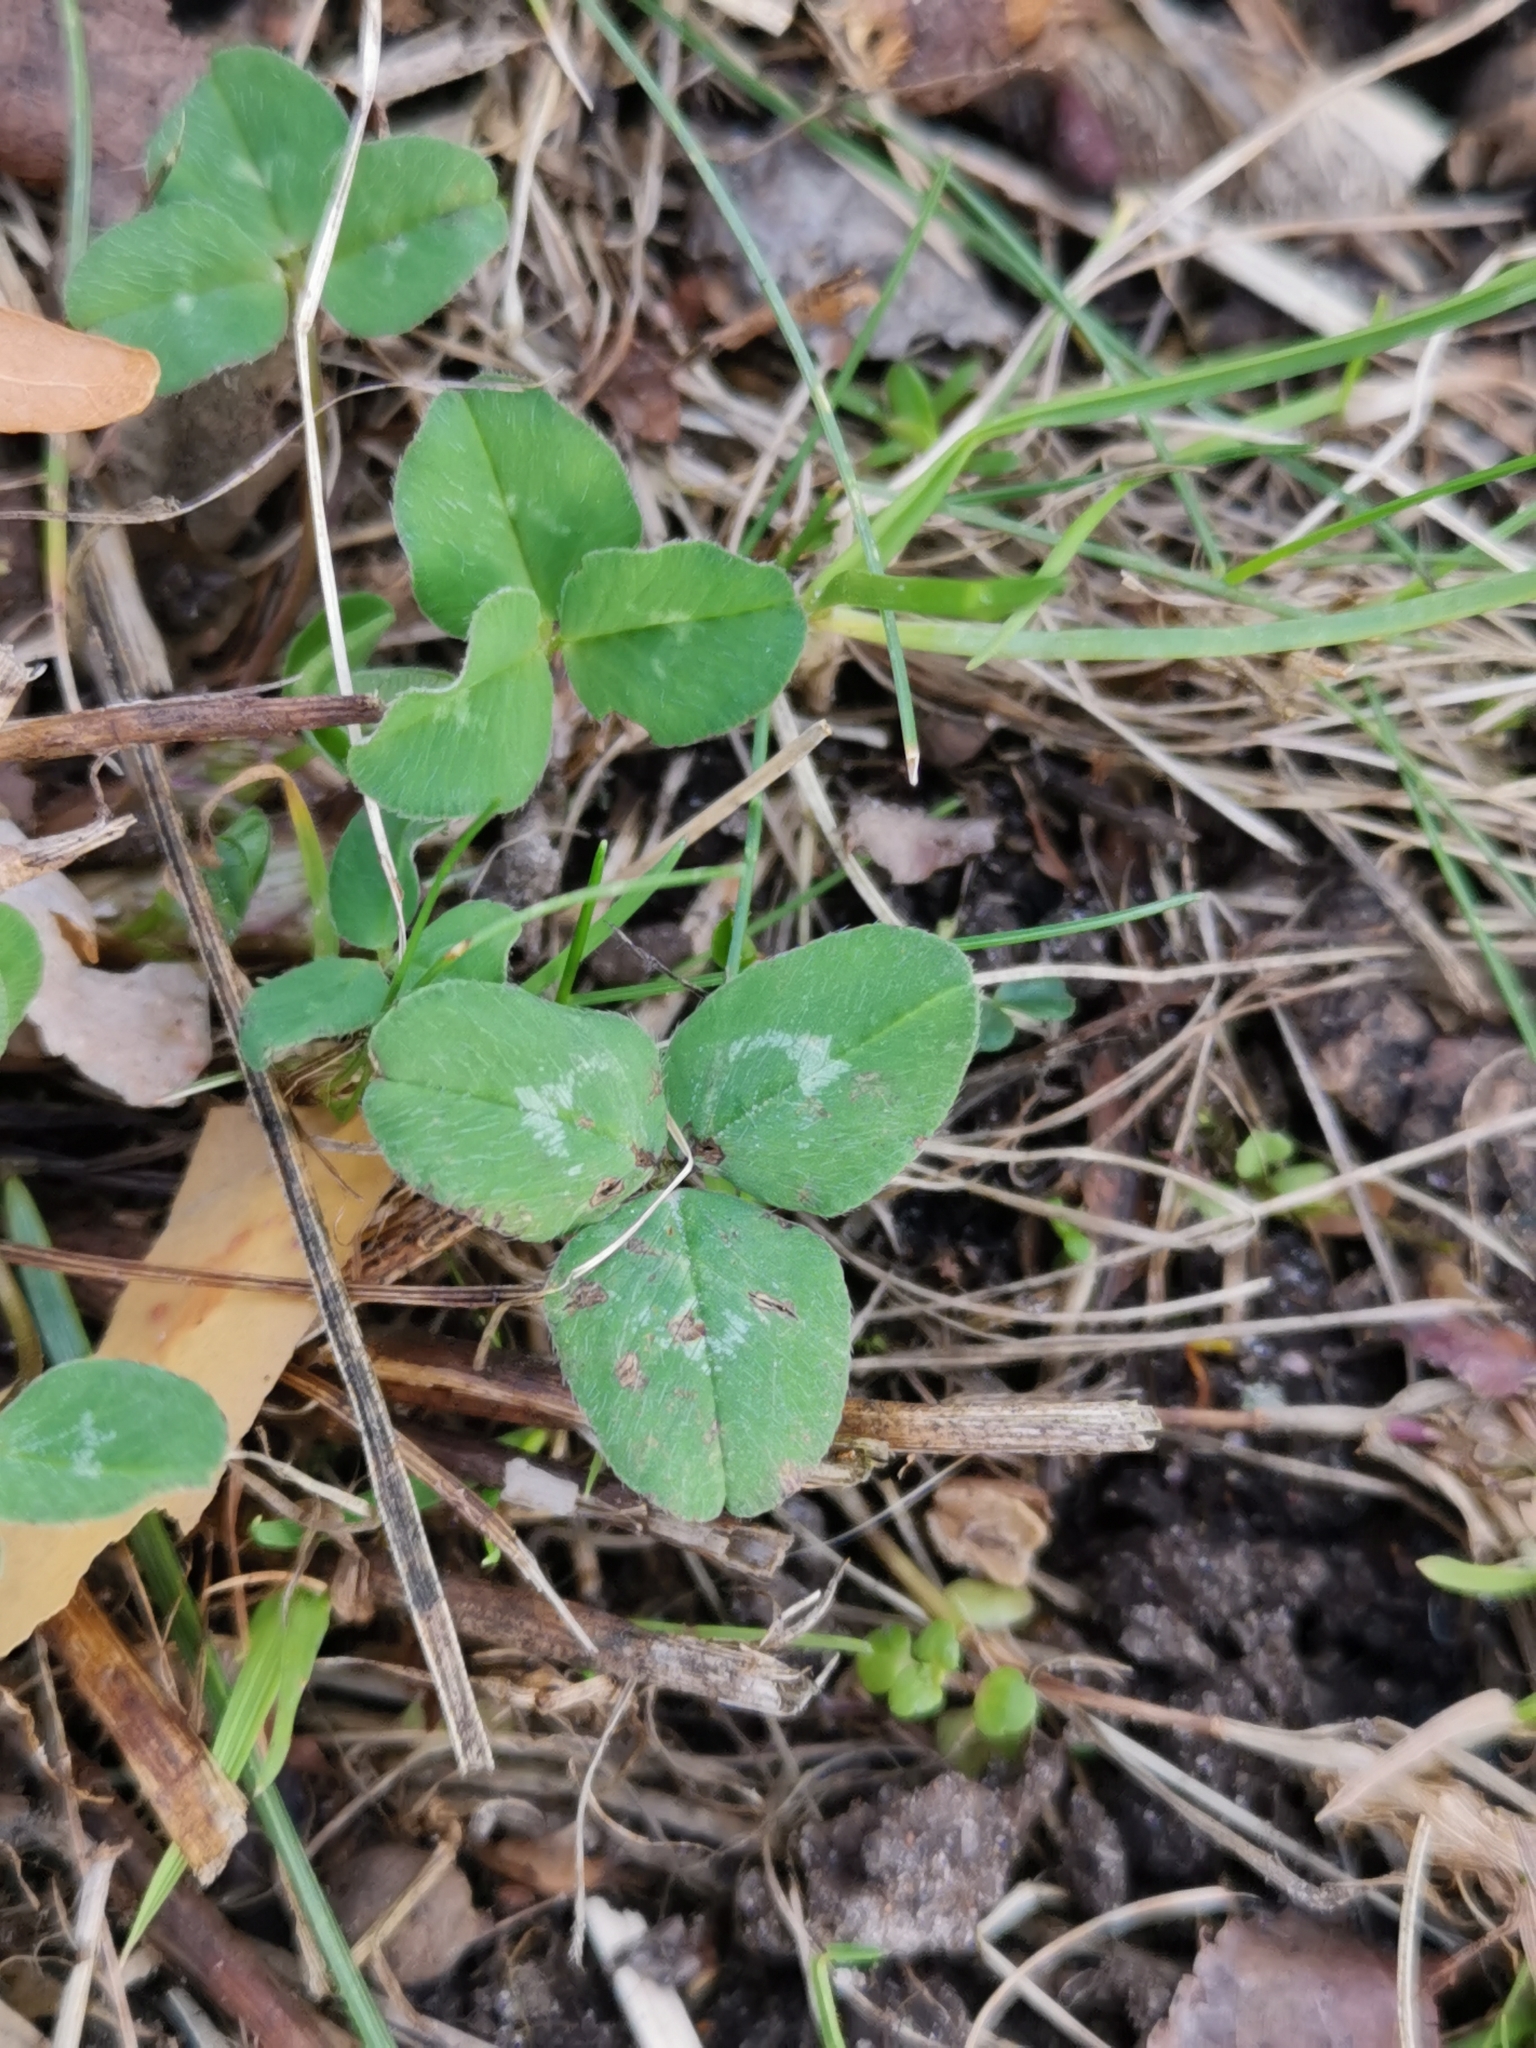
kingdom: Plantae
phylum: Tracheophyta
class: Magnoliopsida
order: Fabales
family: Fabaceae
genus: Trifolium
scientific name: Trifolium pratense
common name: Red clover
